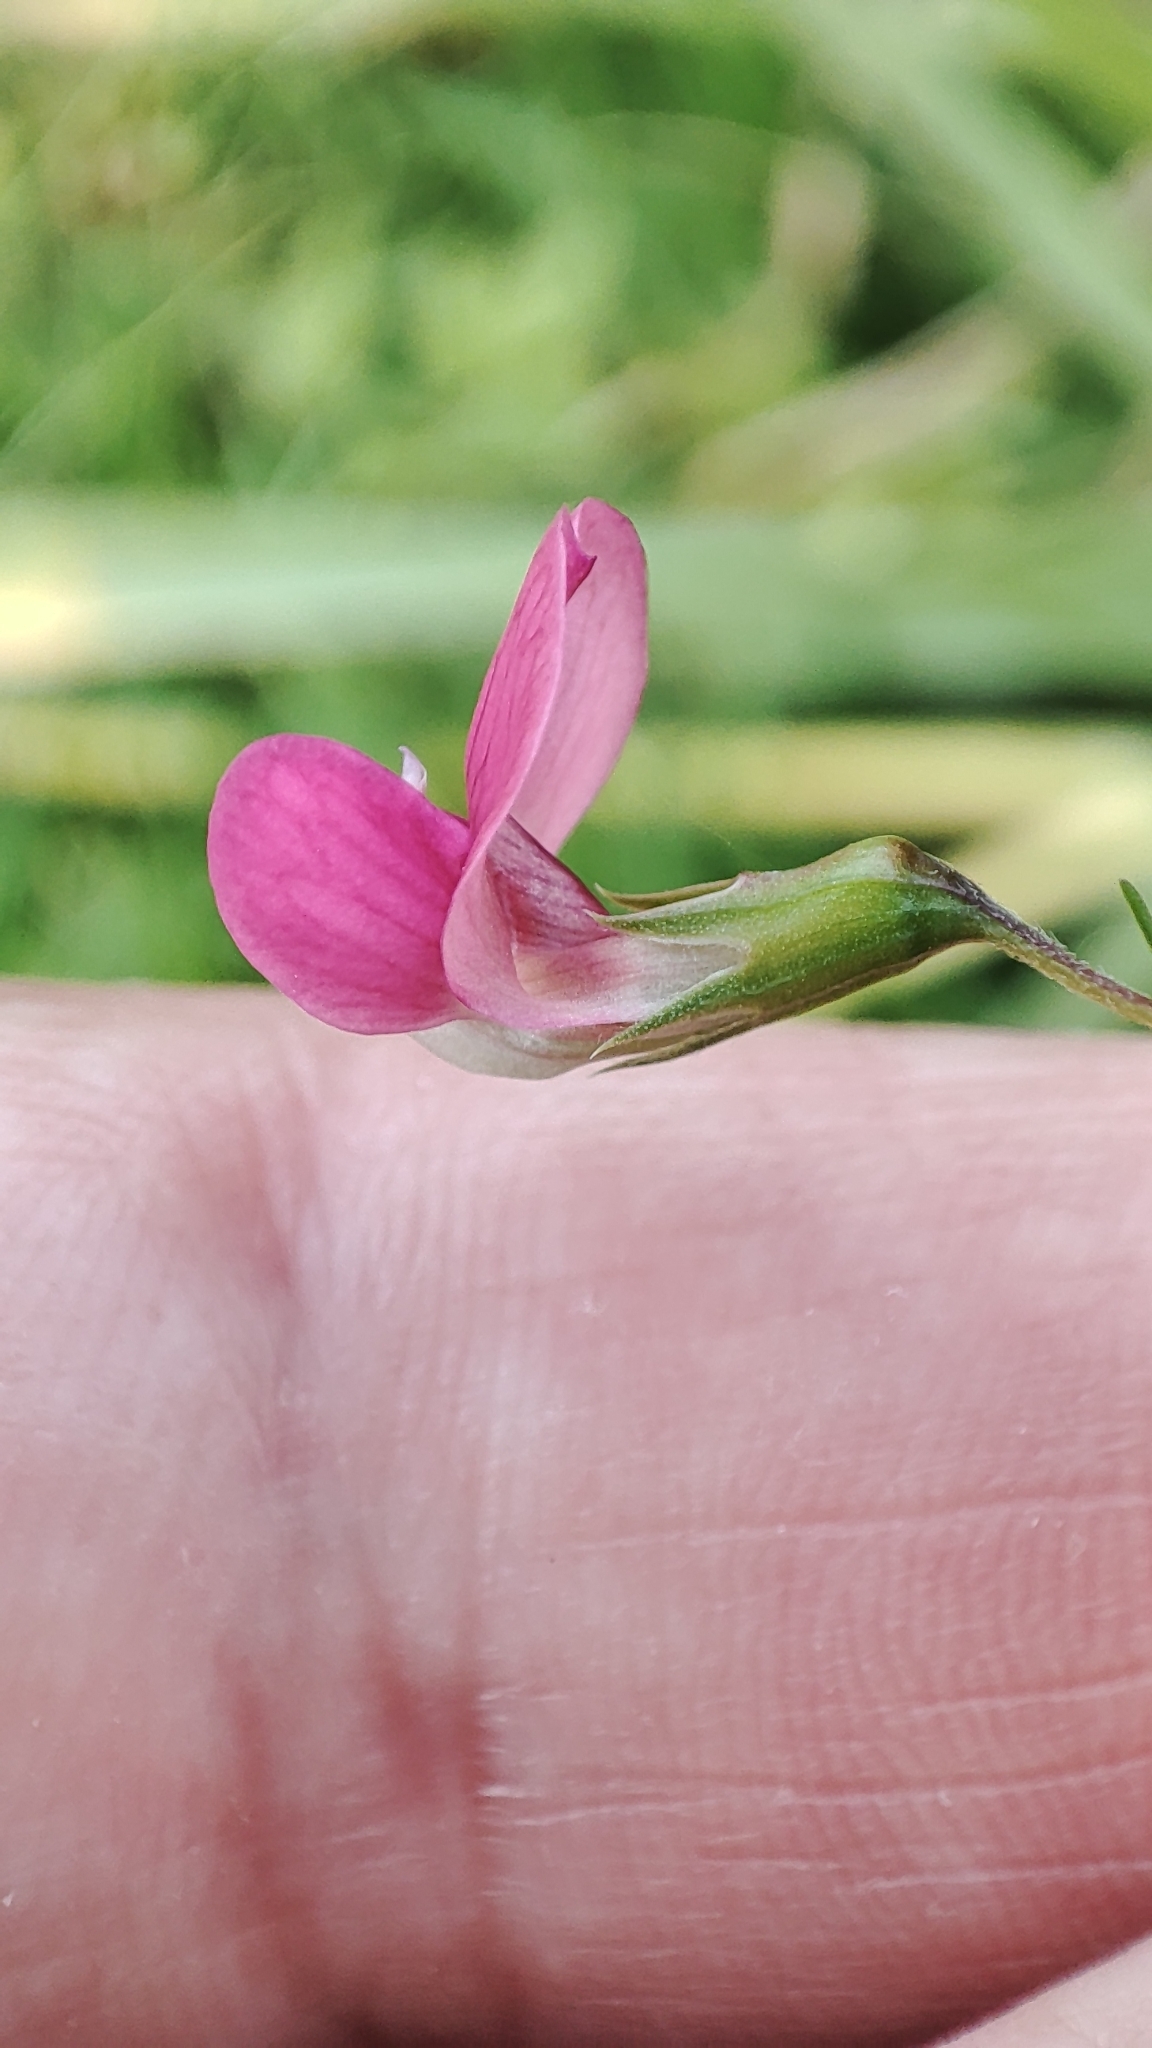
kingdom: Plantae
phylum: Tracheophyta
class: Magnoliopsida
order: Fabales
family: Fabaceae
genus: Lathyrus
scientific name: Lathyrus nissolia
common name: Grass vetchling
